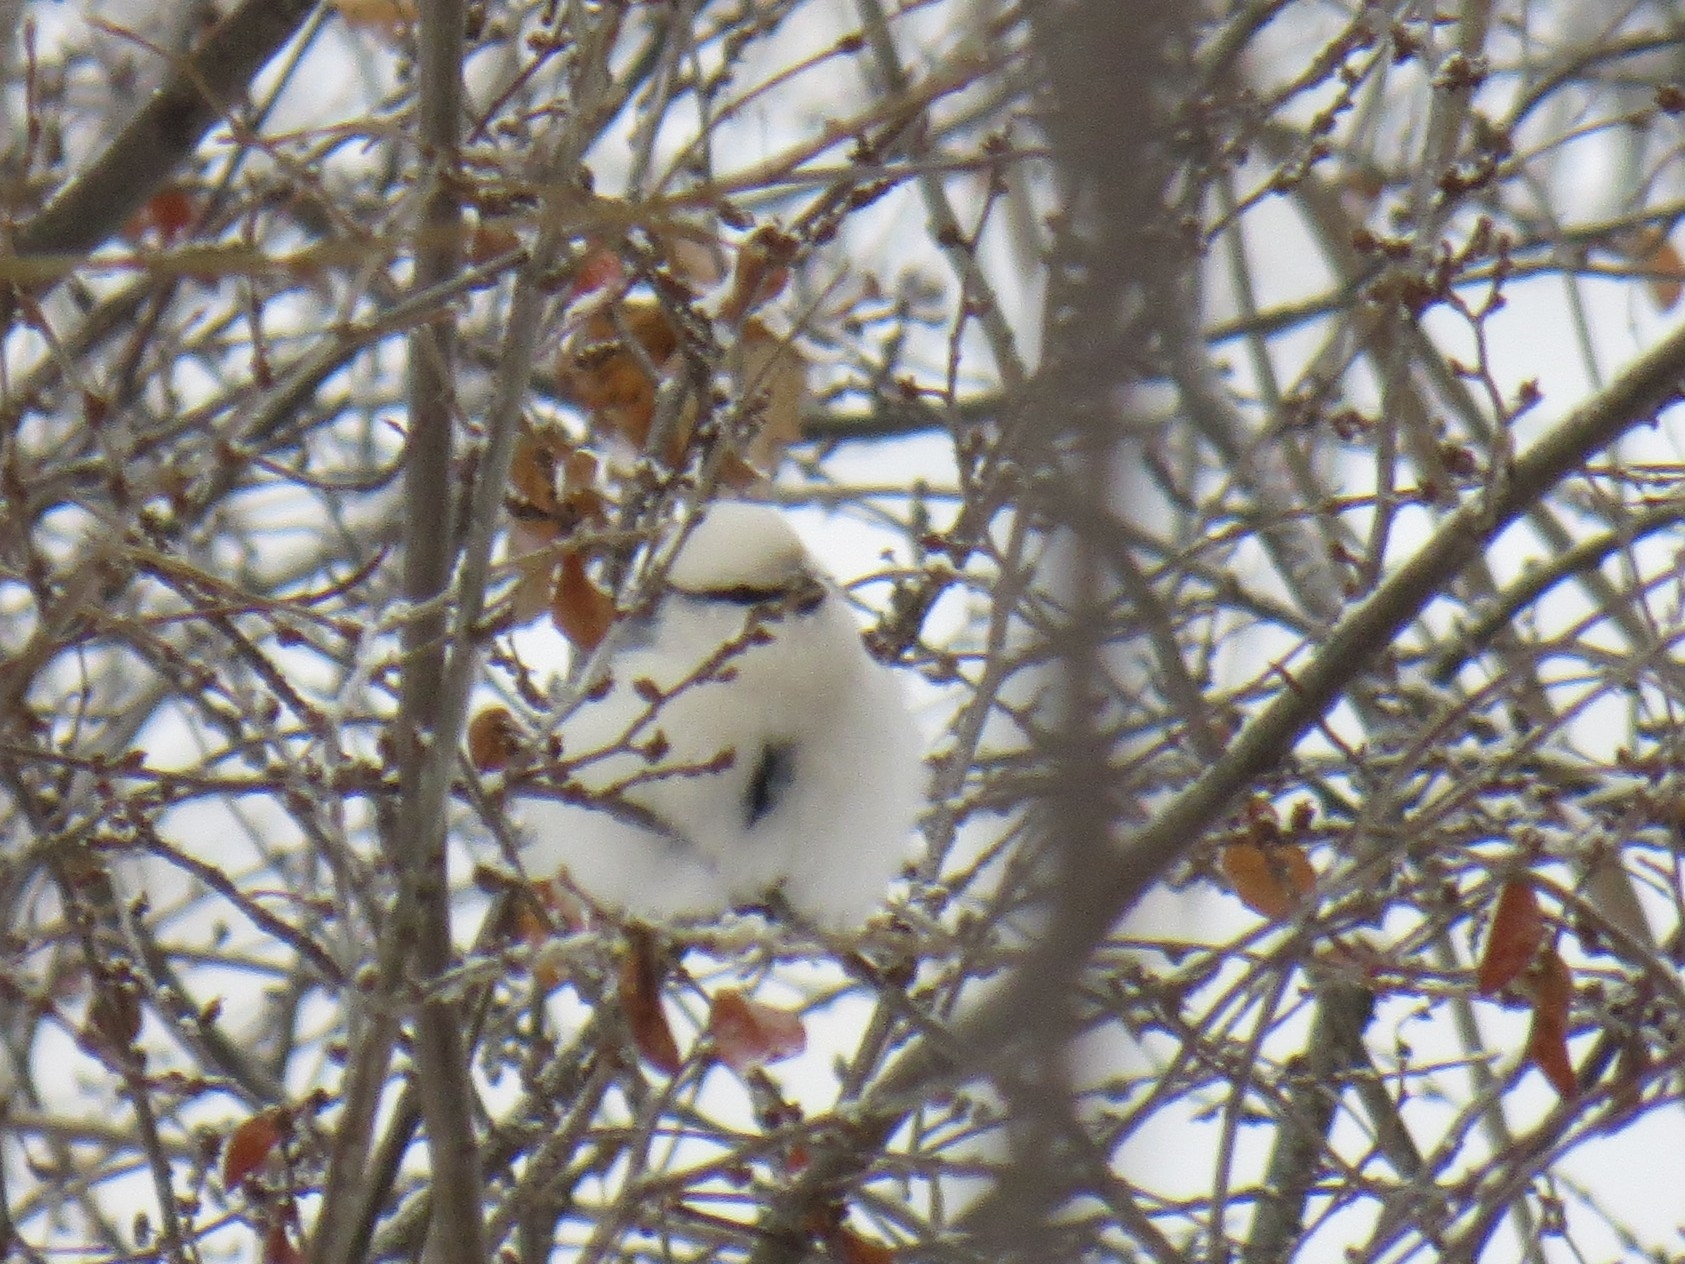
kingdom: Animalia
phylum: Chordata
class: Aves
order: Passeriformes
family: Paridae
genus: Cyanistes
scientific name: Cyanistes cyanus
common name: Azure tit
